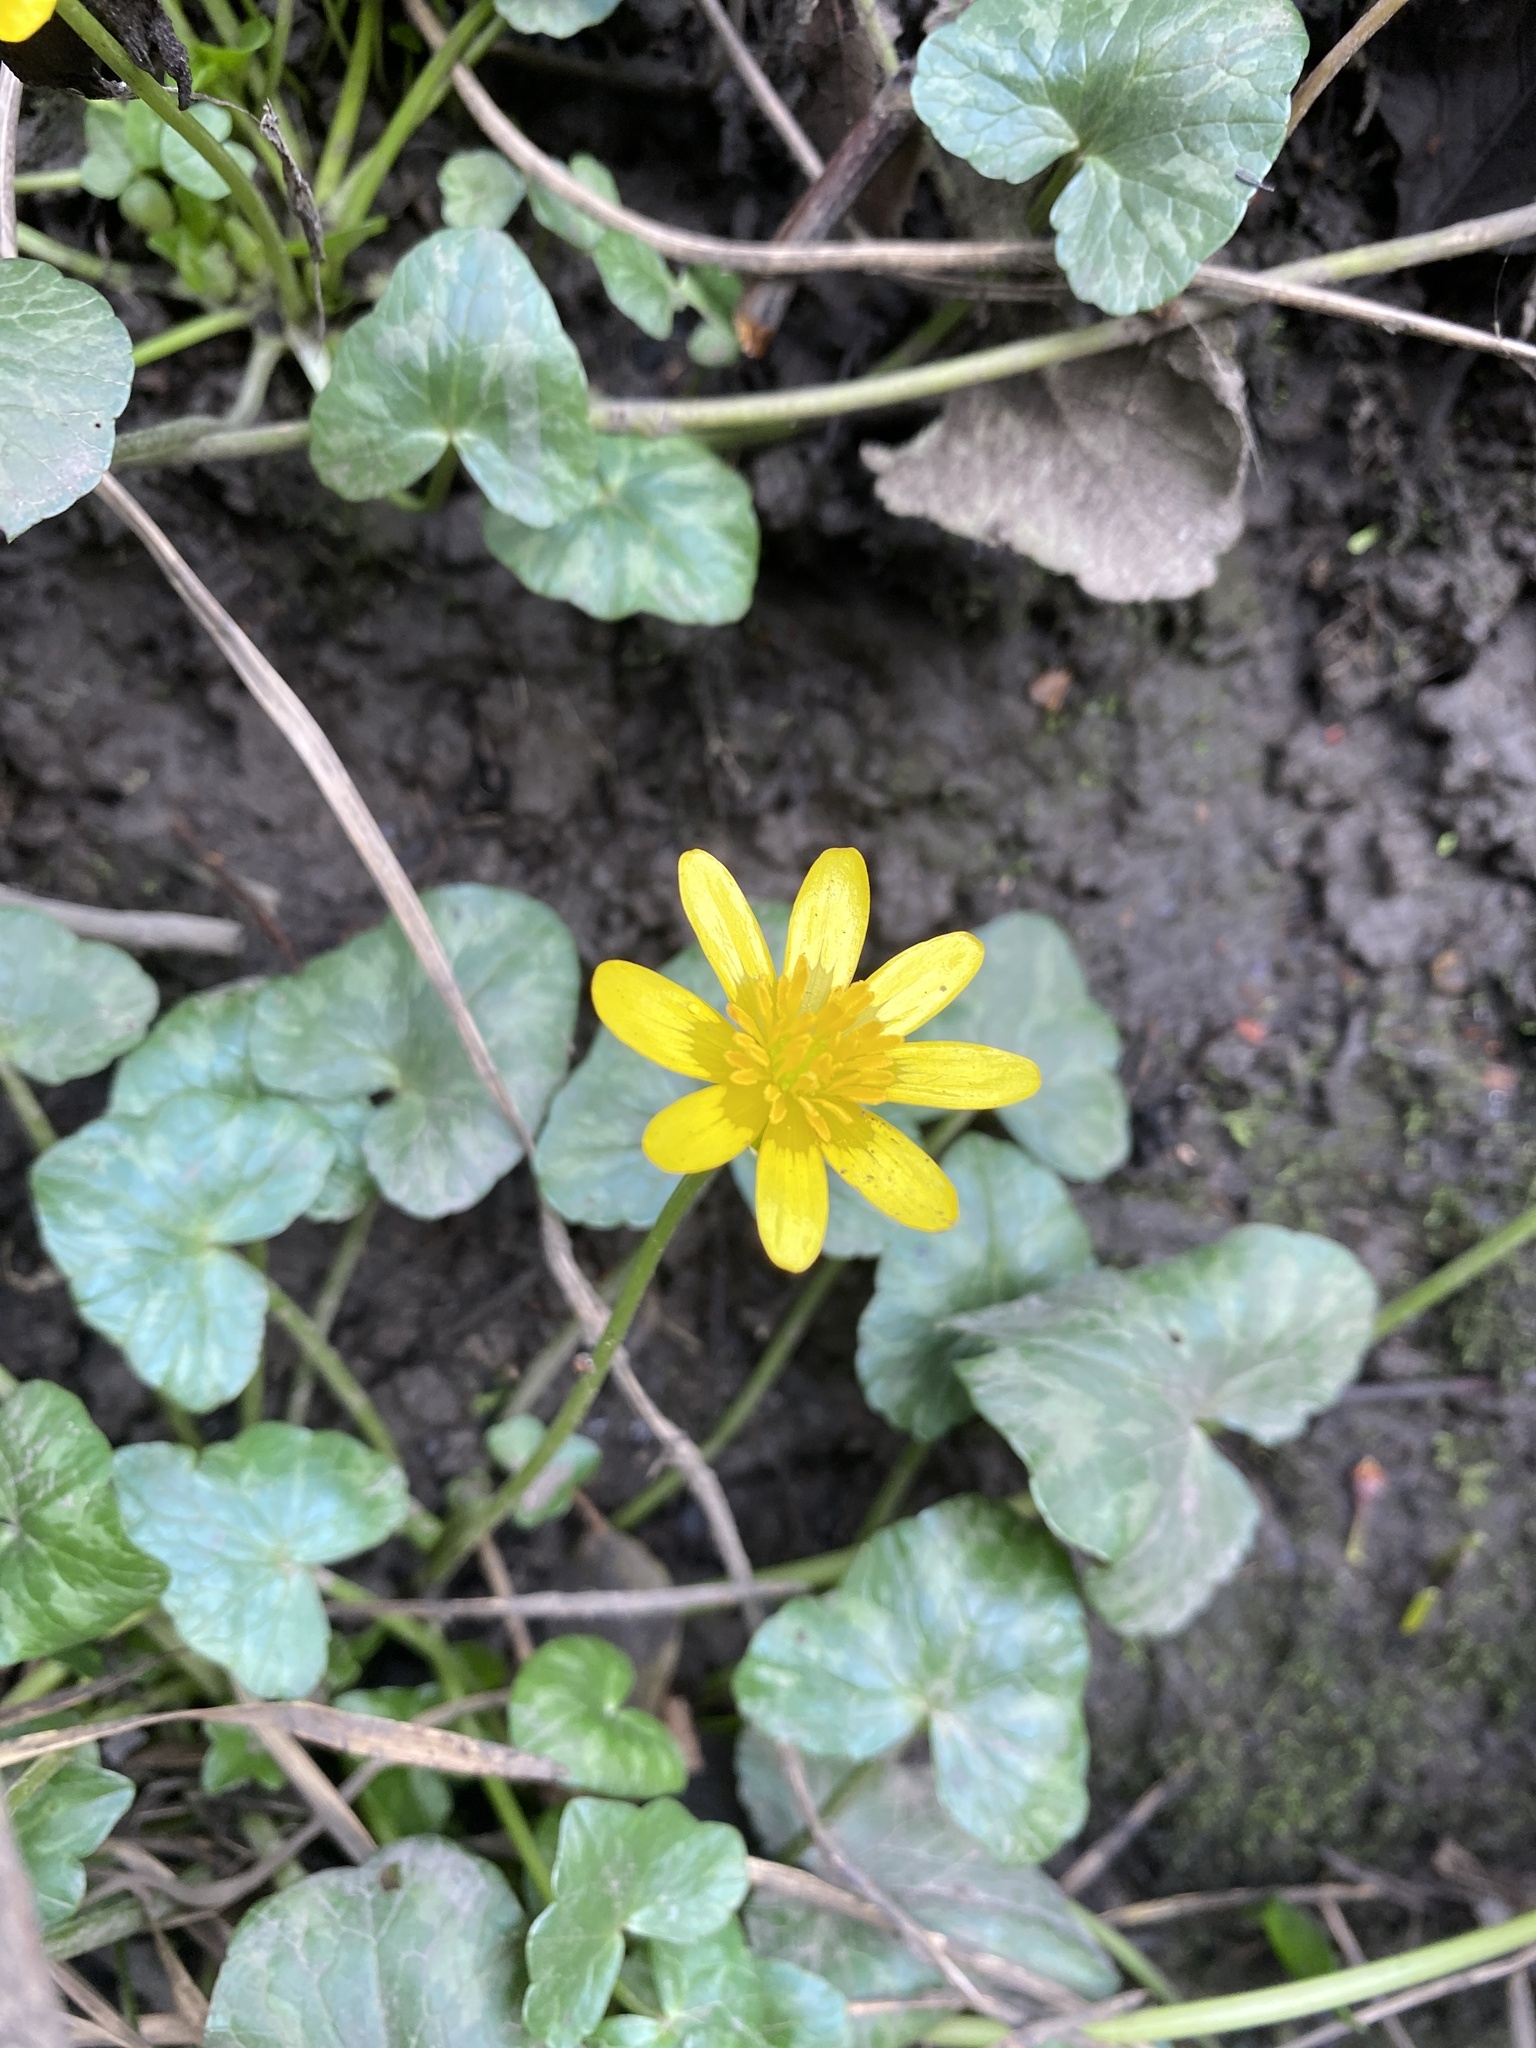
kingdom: Plantae
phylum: Tracheophyta
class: Magnoliopsida
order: Ranunculales
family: Ranunculaceae
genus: Ficaria
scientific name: Ficaria verna
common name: Lesser celandine
